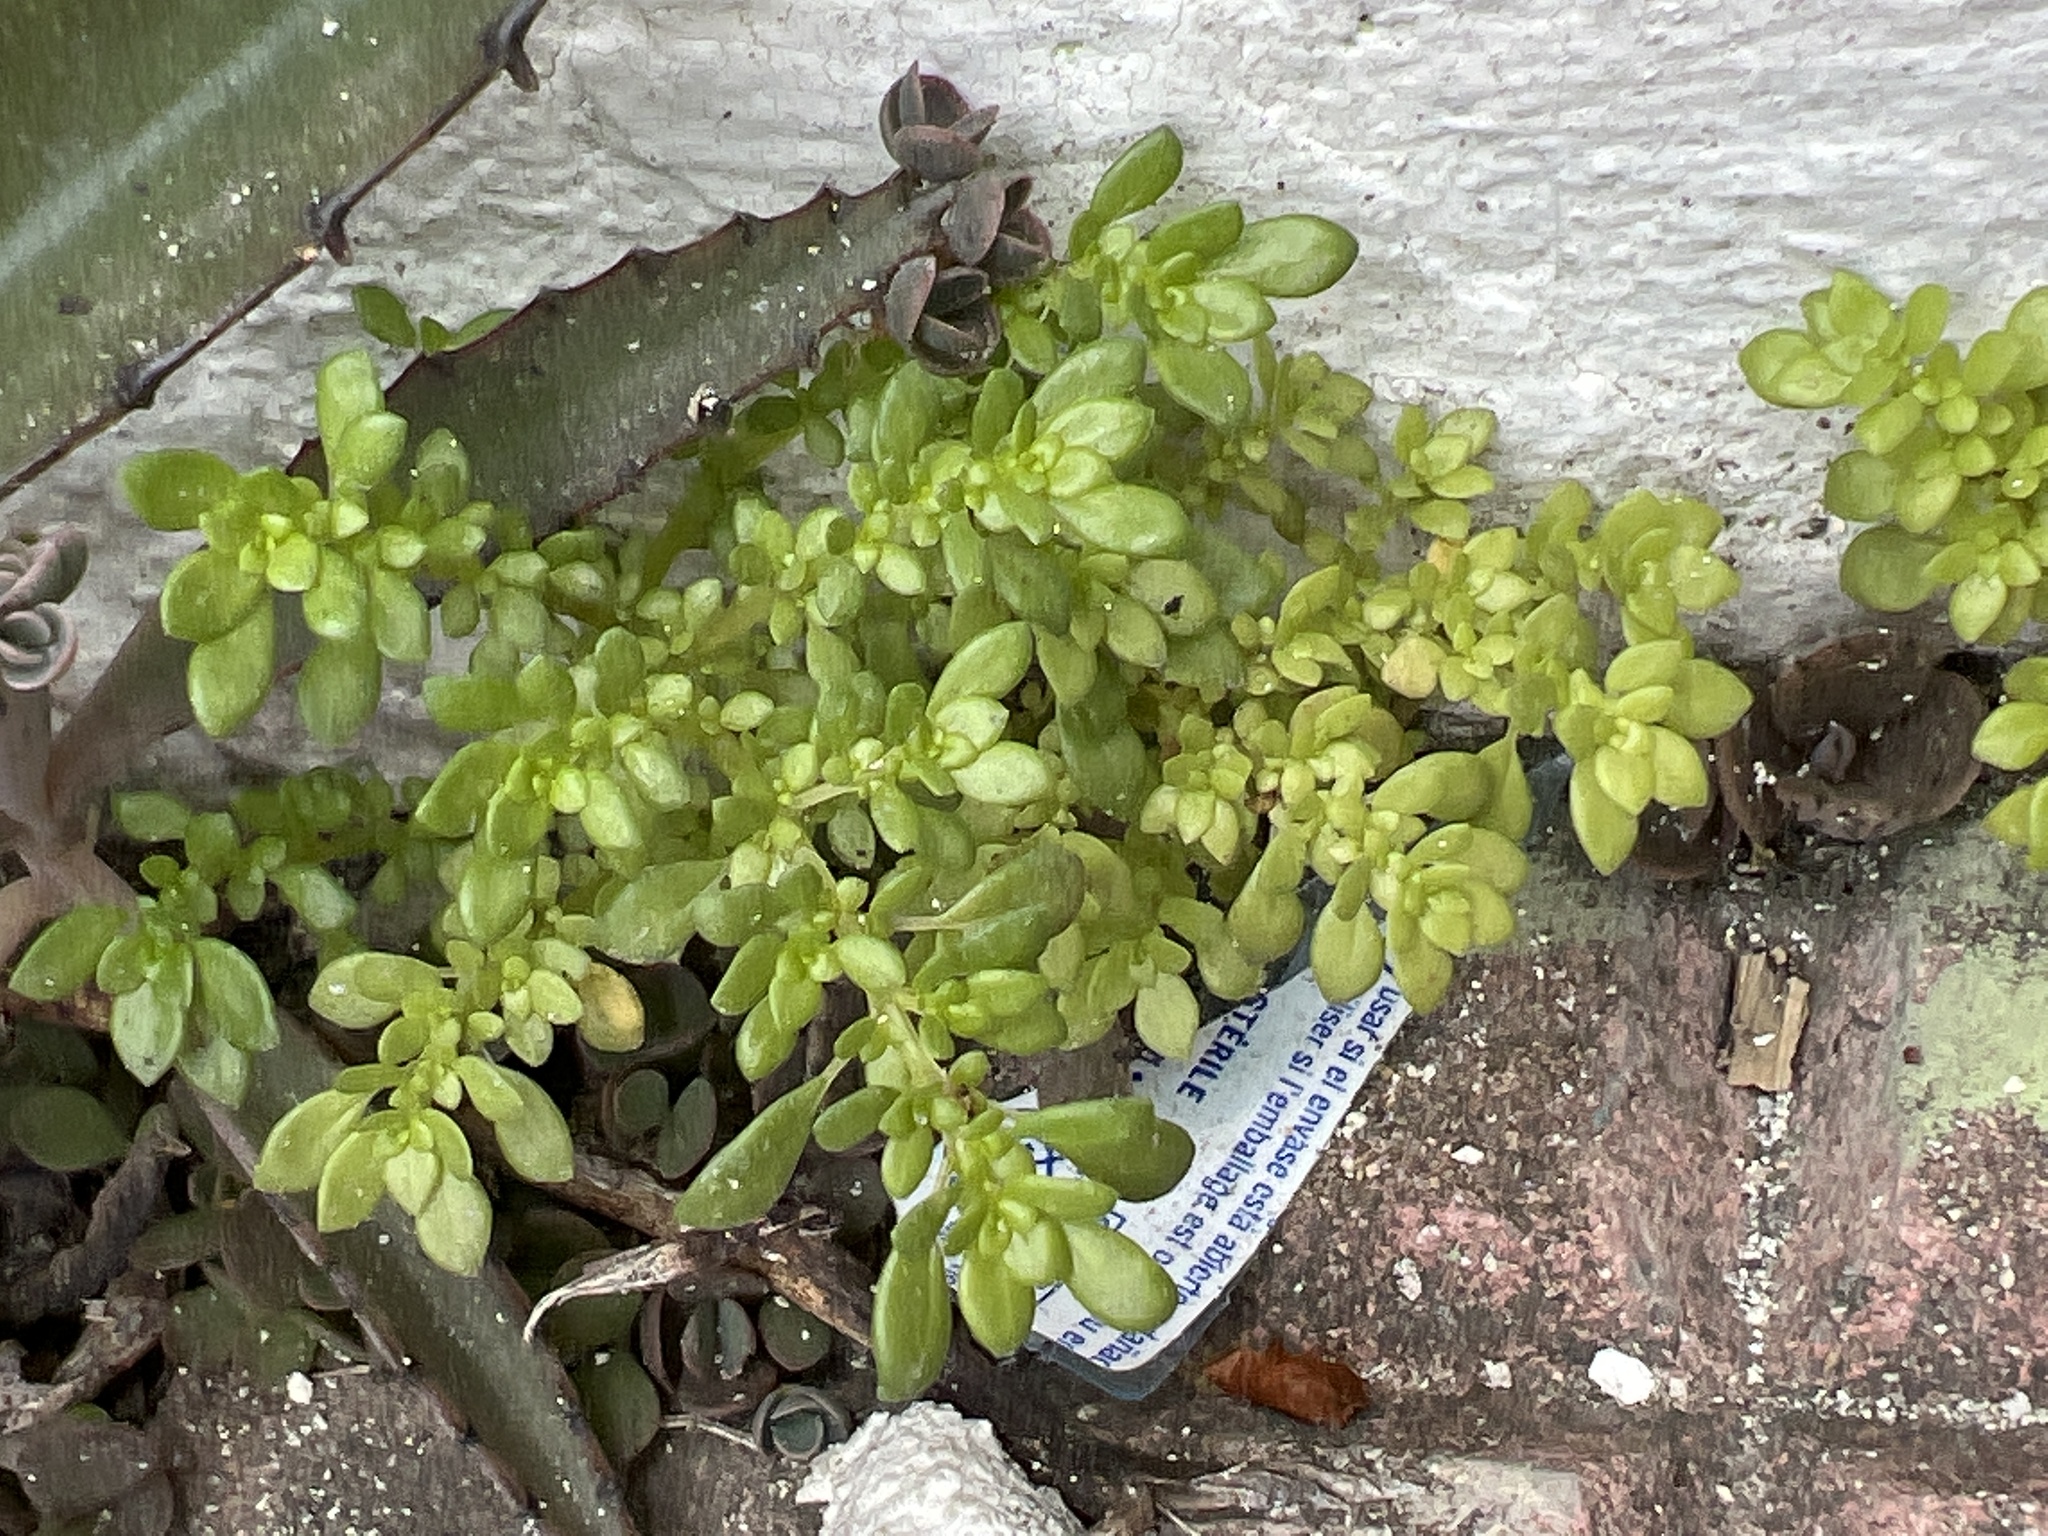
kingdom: Plantae
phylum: Tracheophyta
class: Magnoliopsida
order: Rosales
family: Urticaceae
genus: Pilea
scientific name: Pilea microphylla
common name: Artillery-plant
